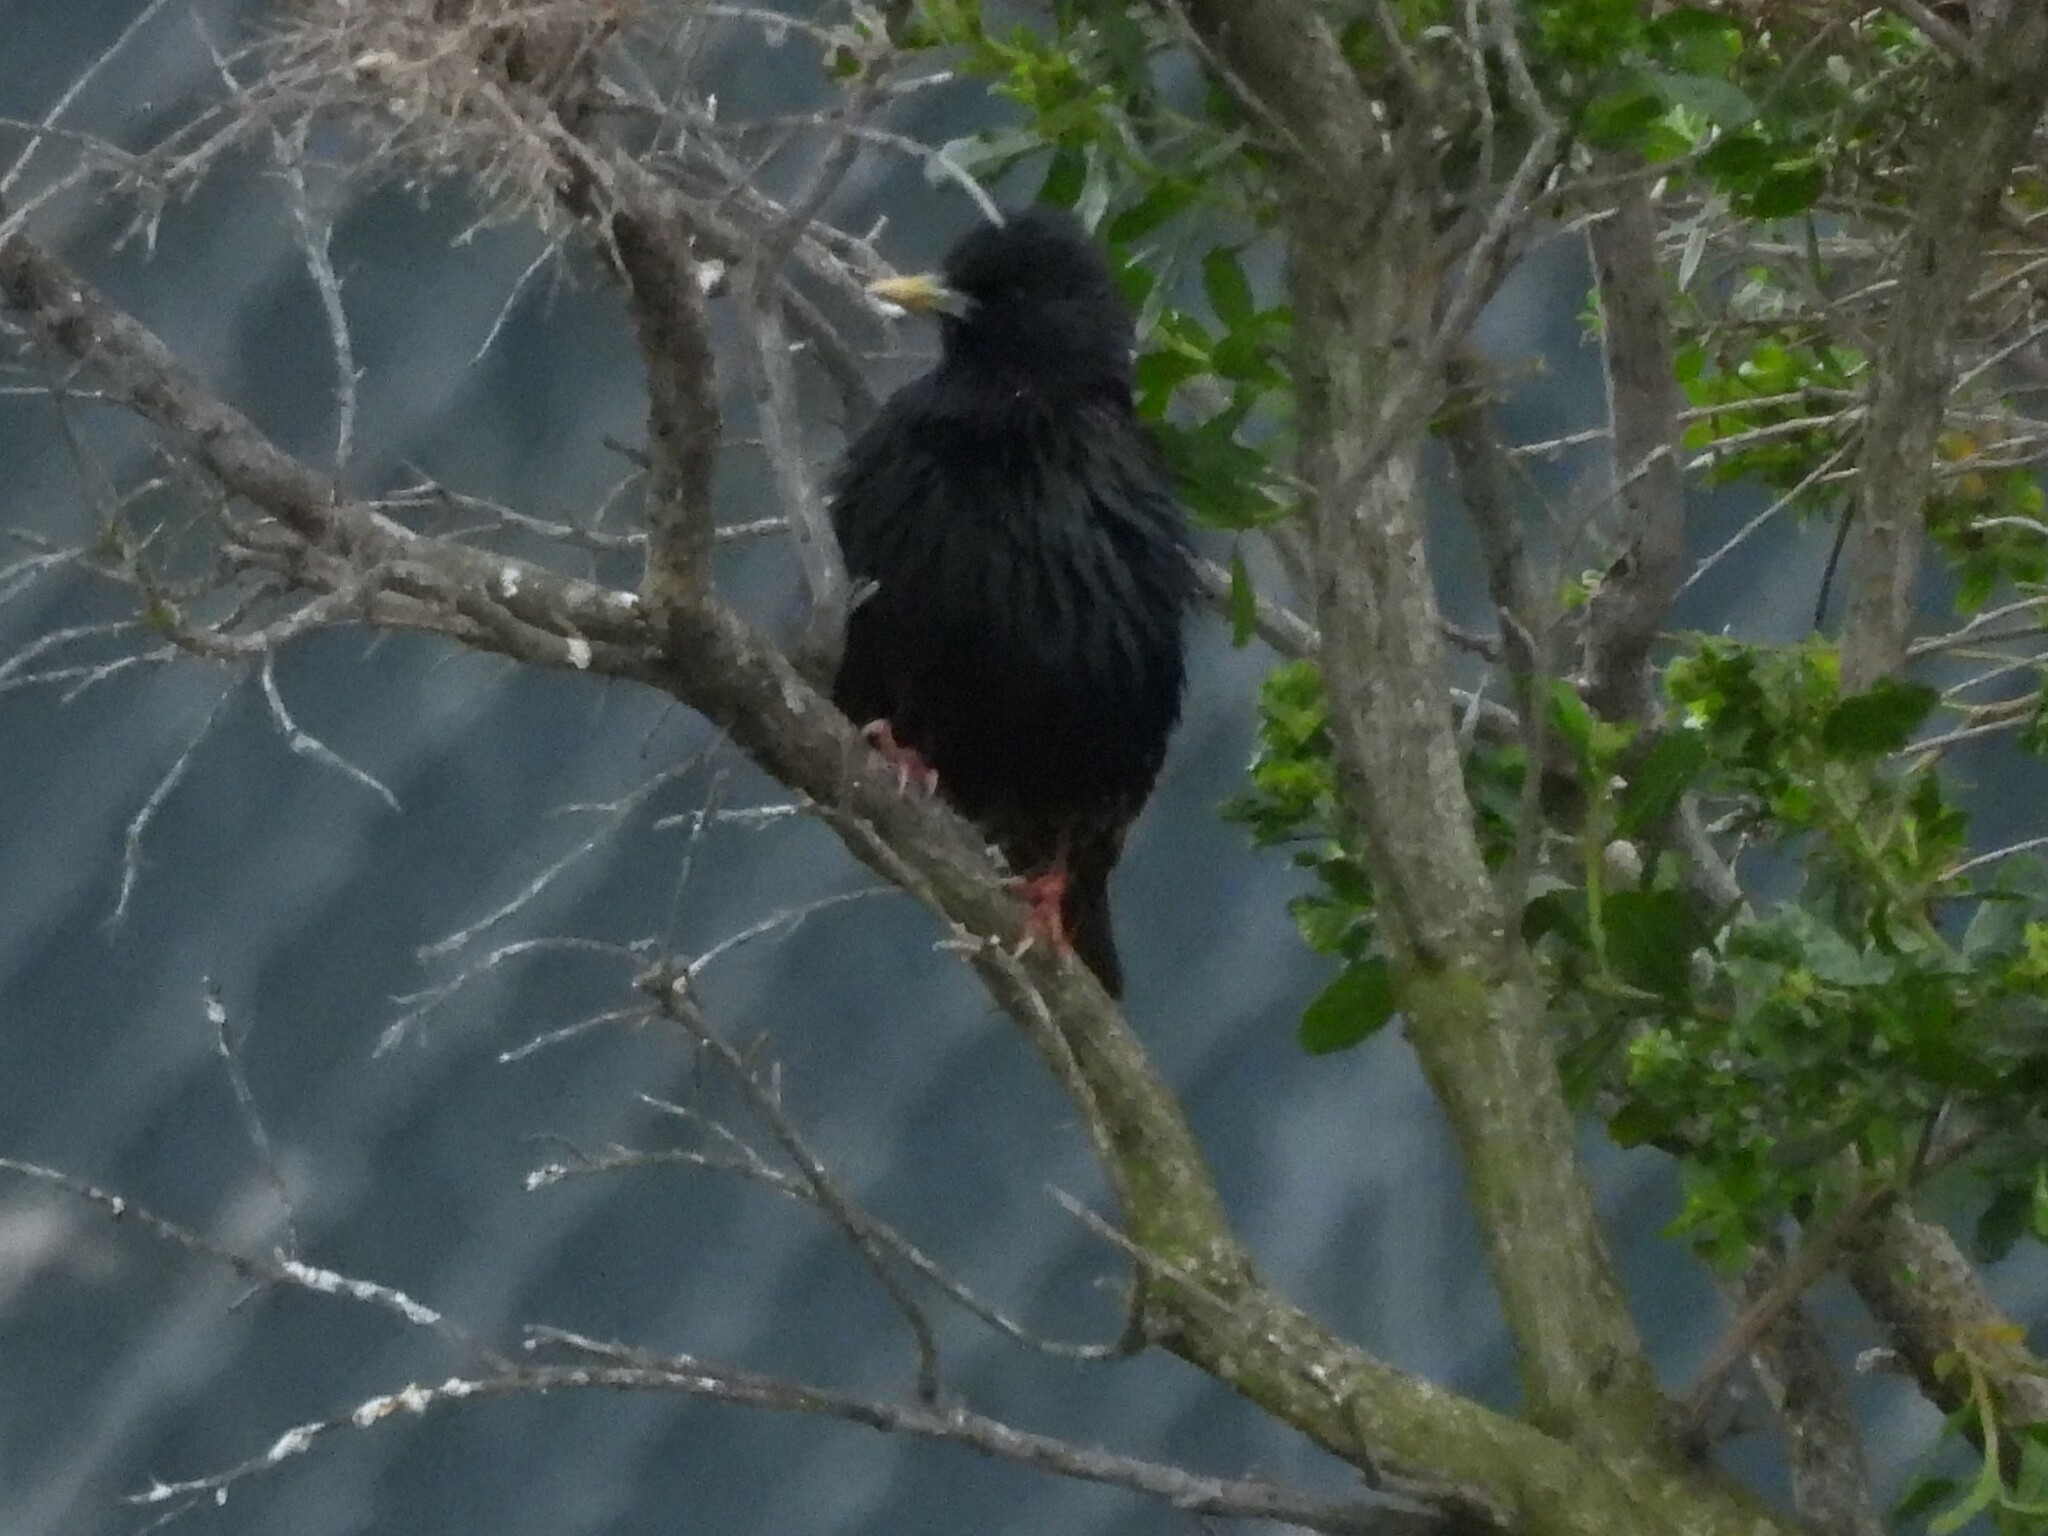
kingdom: Animalia
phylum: Chordata
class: Aves
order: Passeriformes
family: Sturnidae
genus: Sturnus
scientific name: Sturnus vulgaris
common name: Common starling
